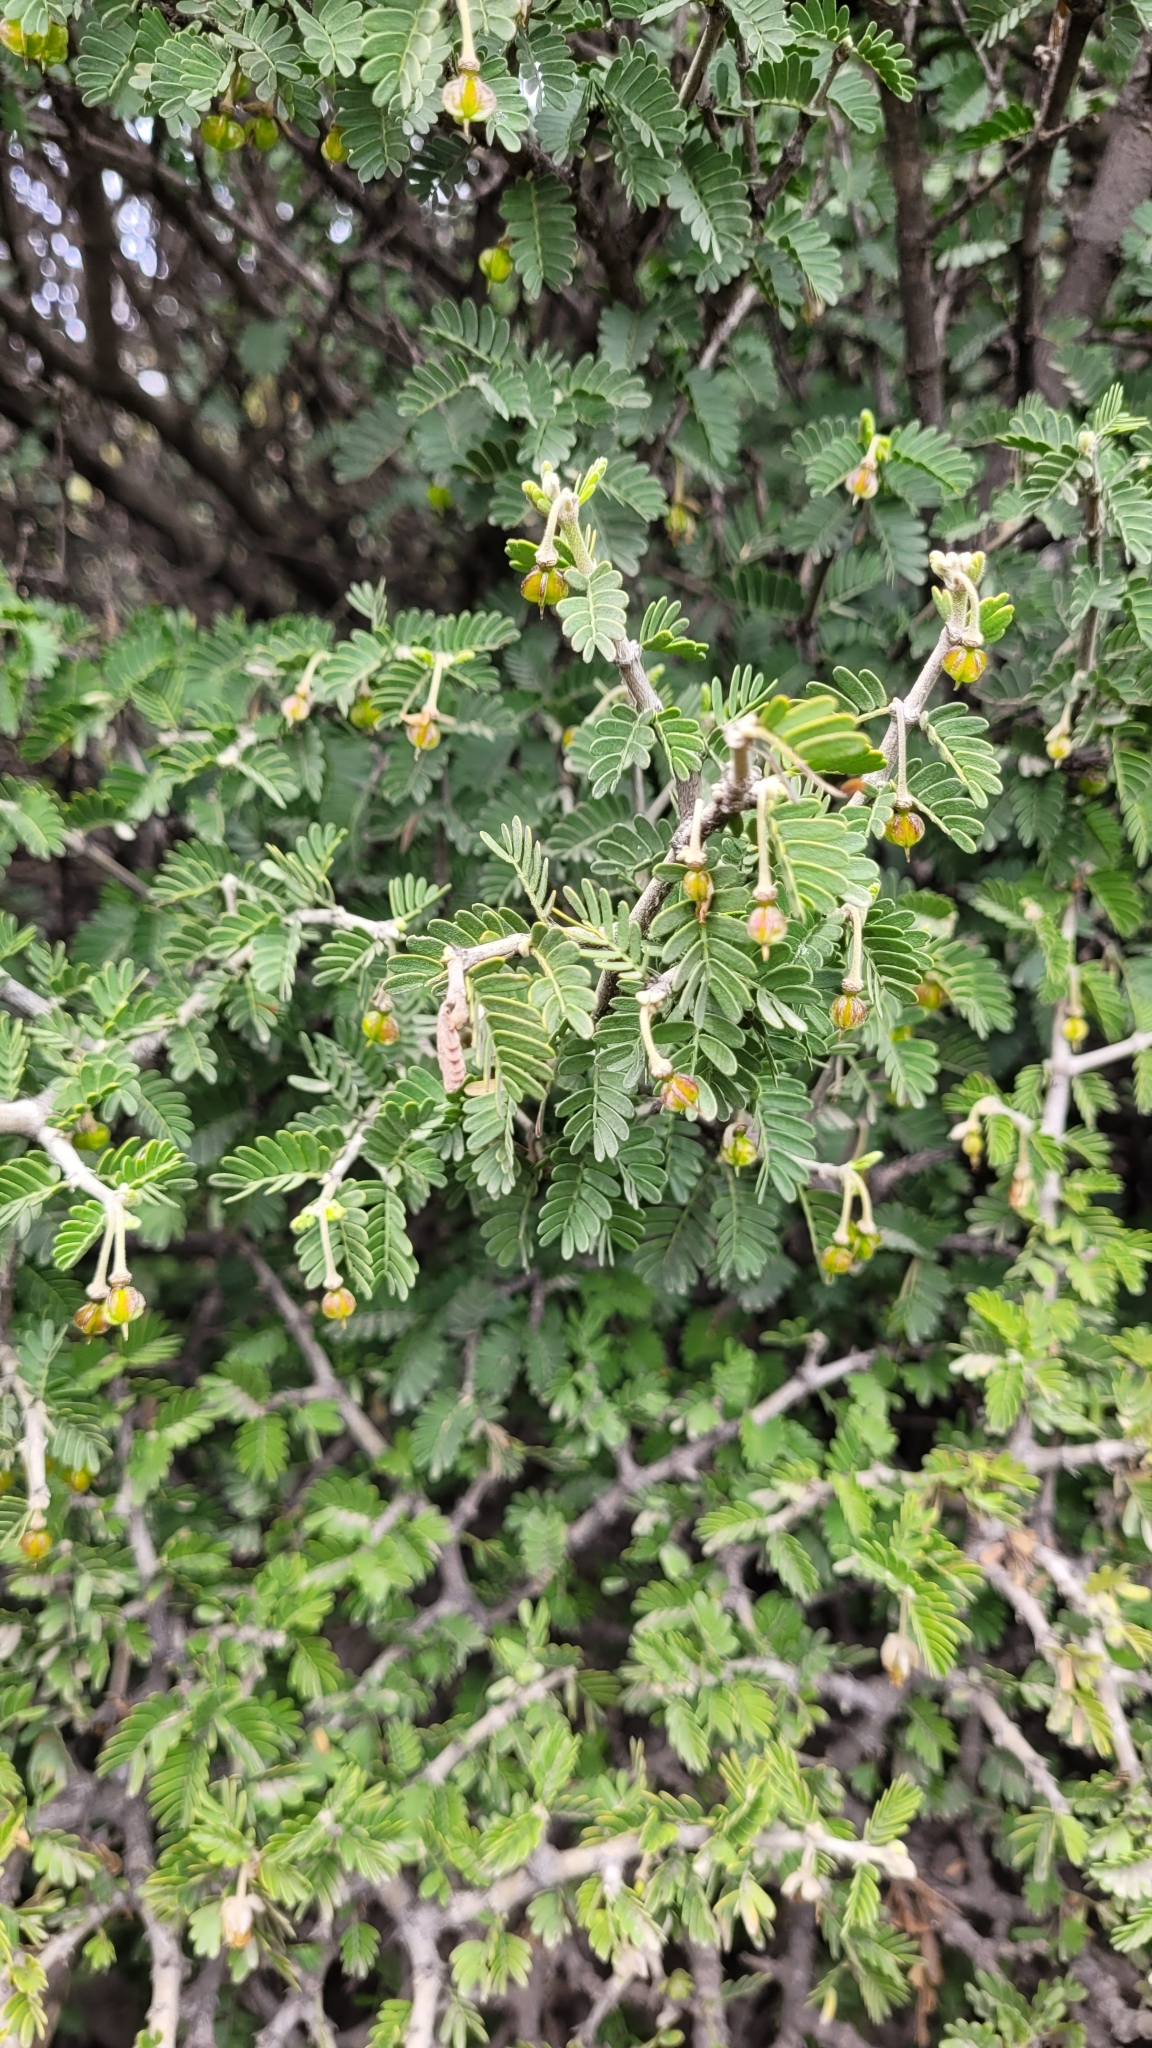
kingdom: Plantae
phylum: Tracheophyta
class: Magnoliopsida
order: Zygophyllales
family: Zygophyllaceae
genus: Porlieria
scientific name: Porlieria chilensis
